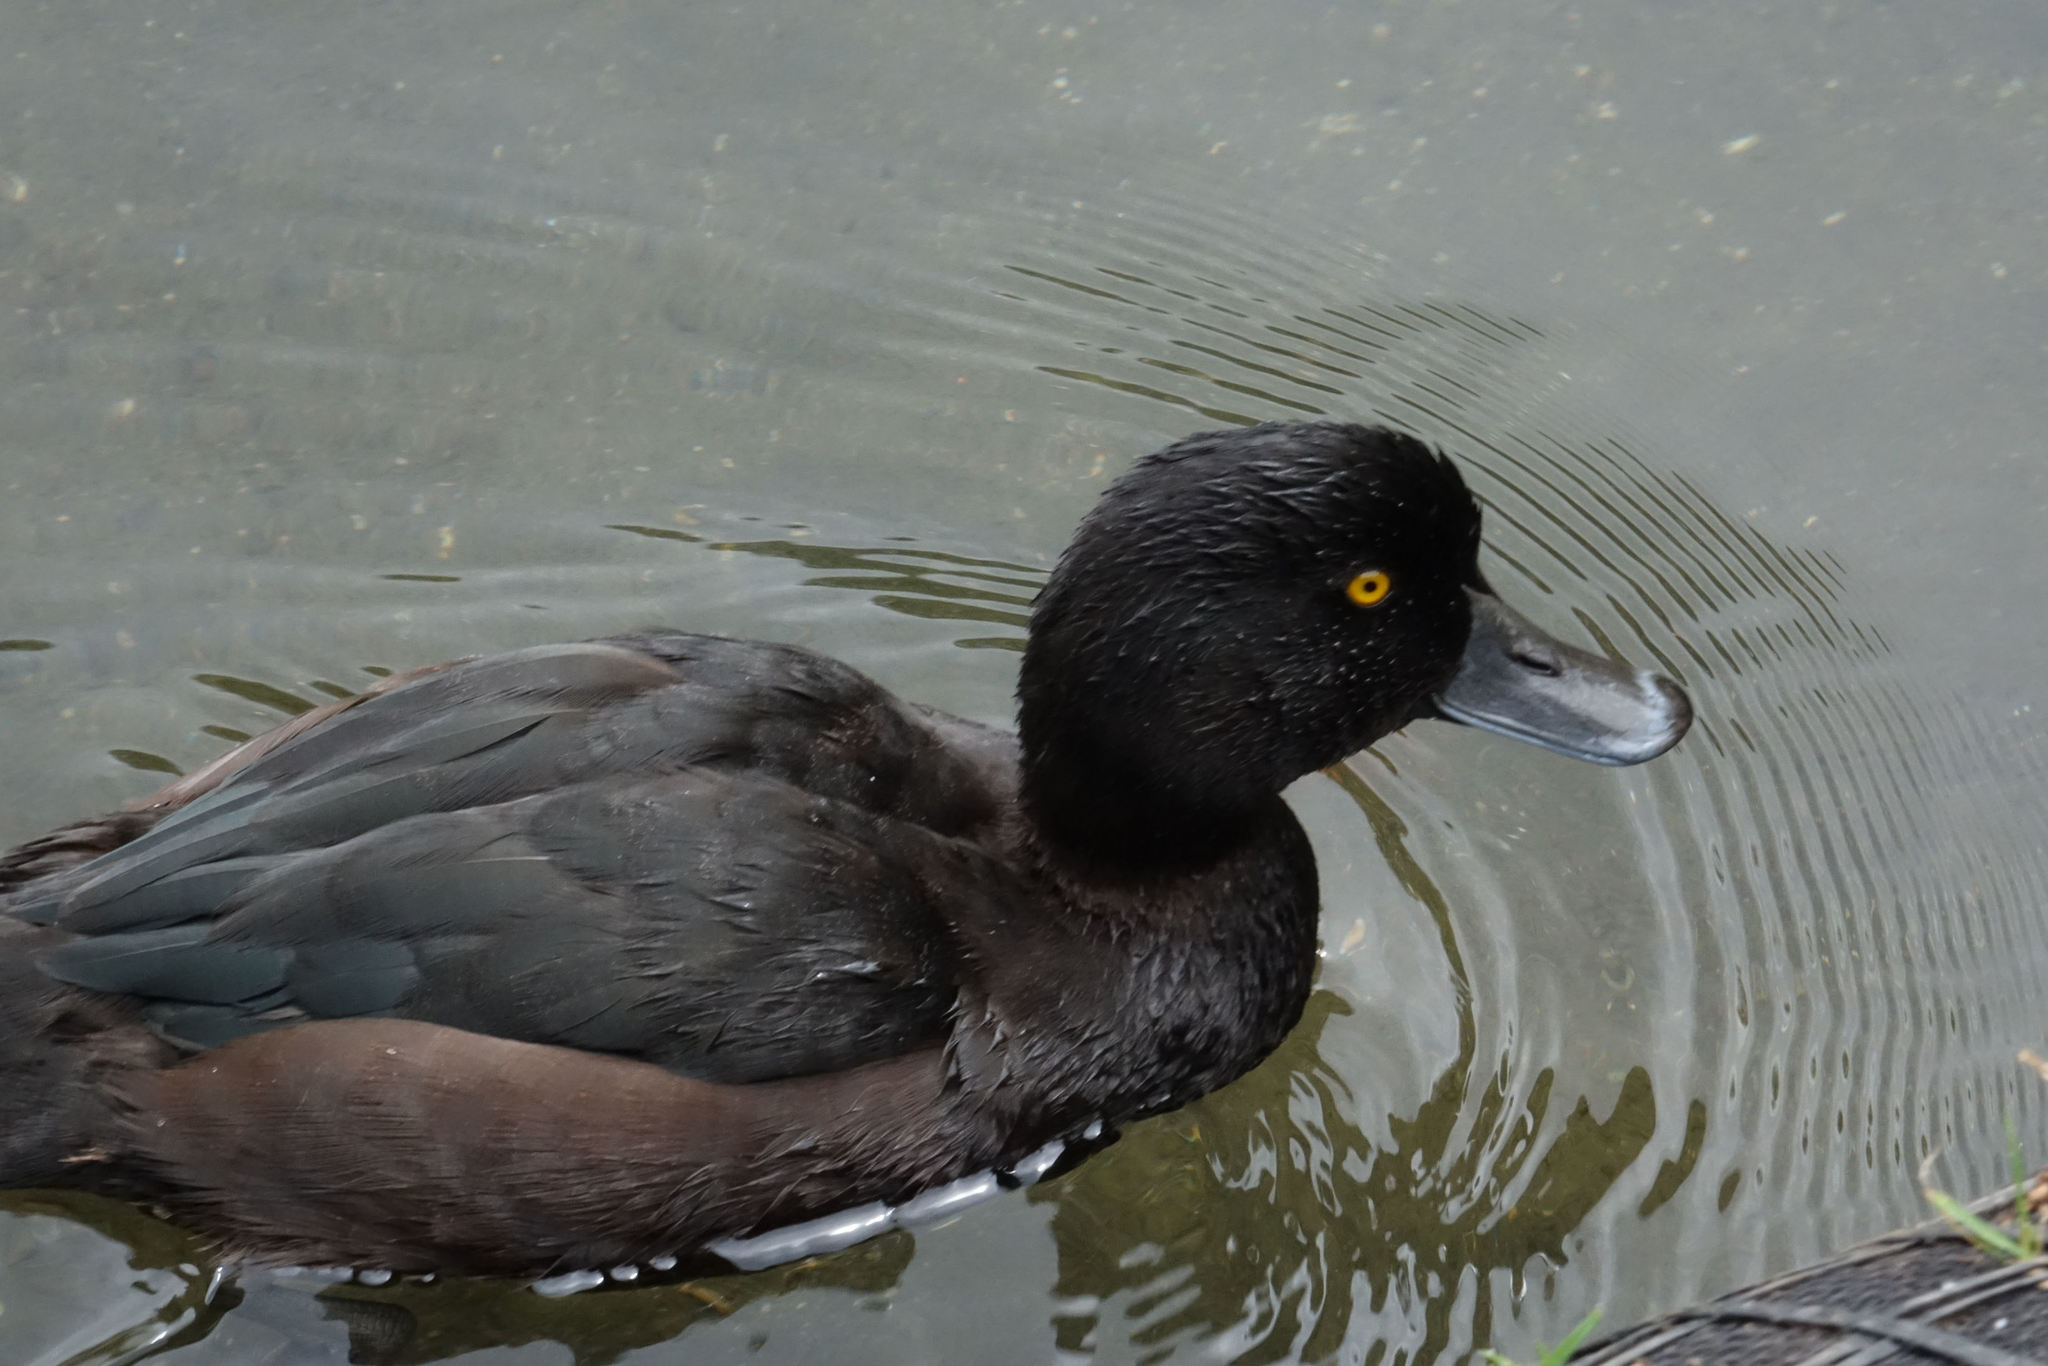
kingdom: Animalia
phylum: Chordata
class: Aves
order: Anseriformes
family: Anatidae
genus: Aythya
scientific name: Aythya novaeseelandiae
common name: New zealand scaup
